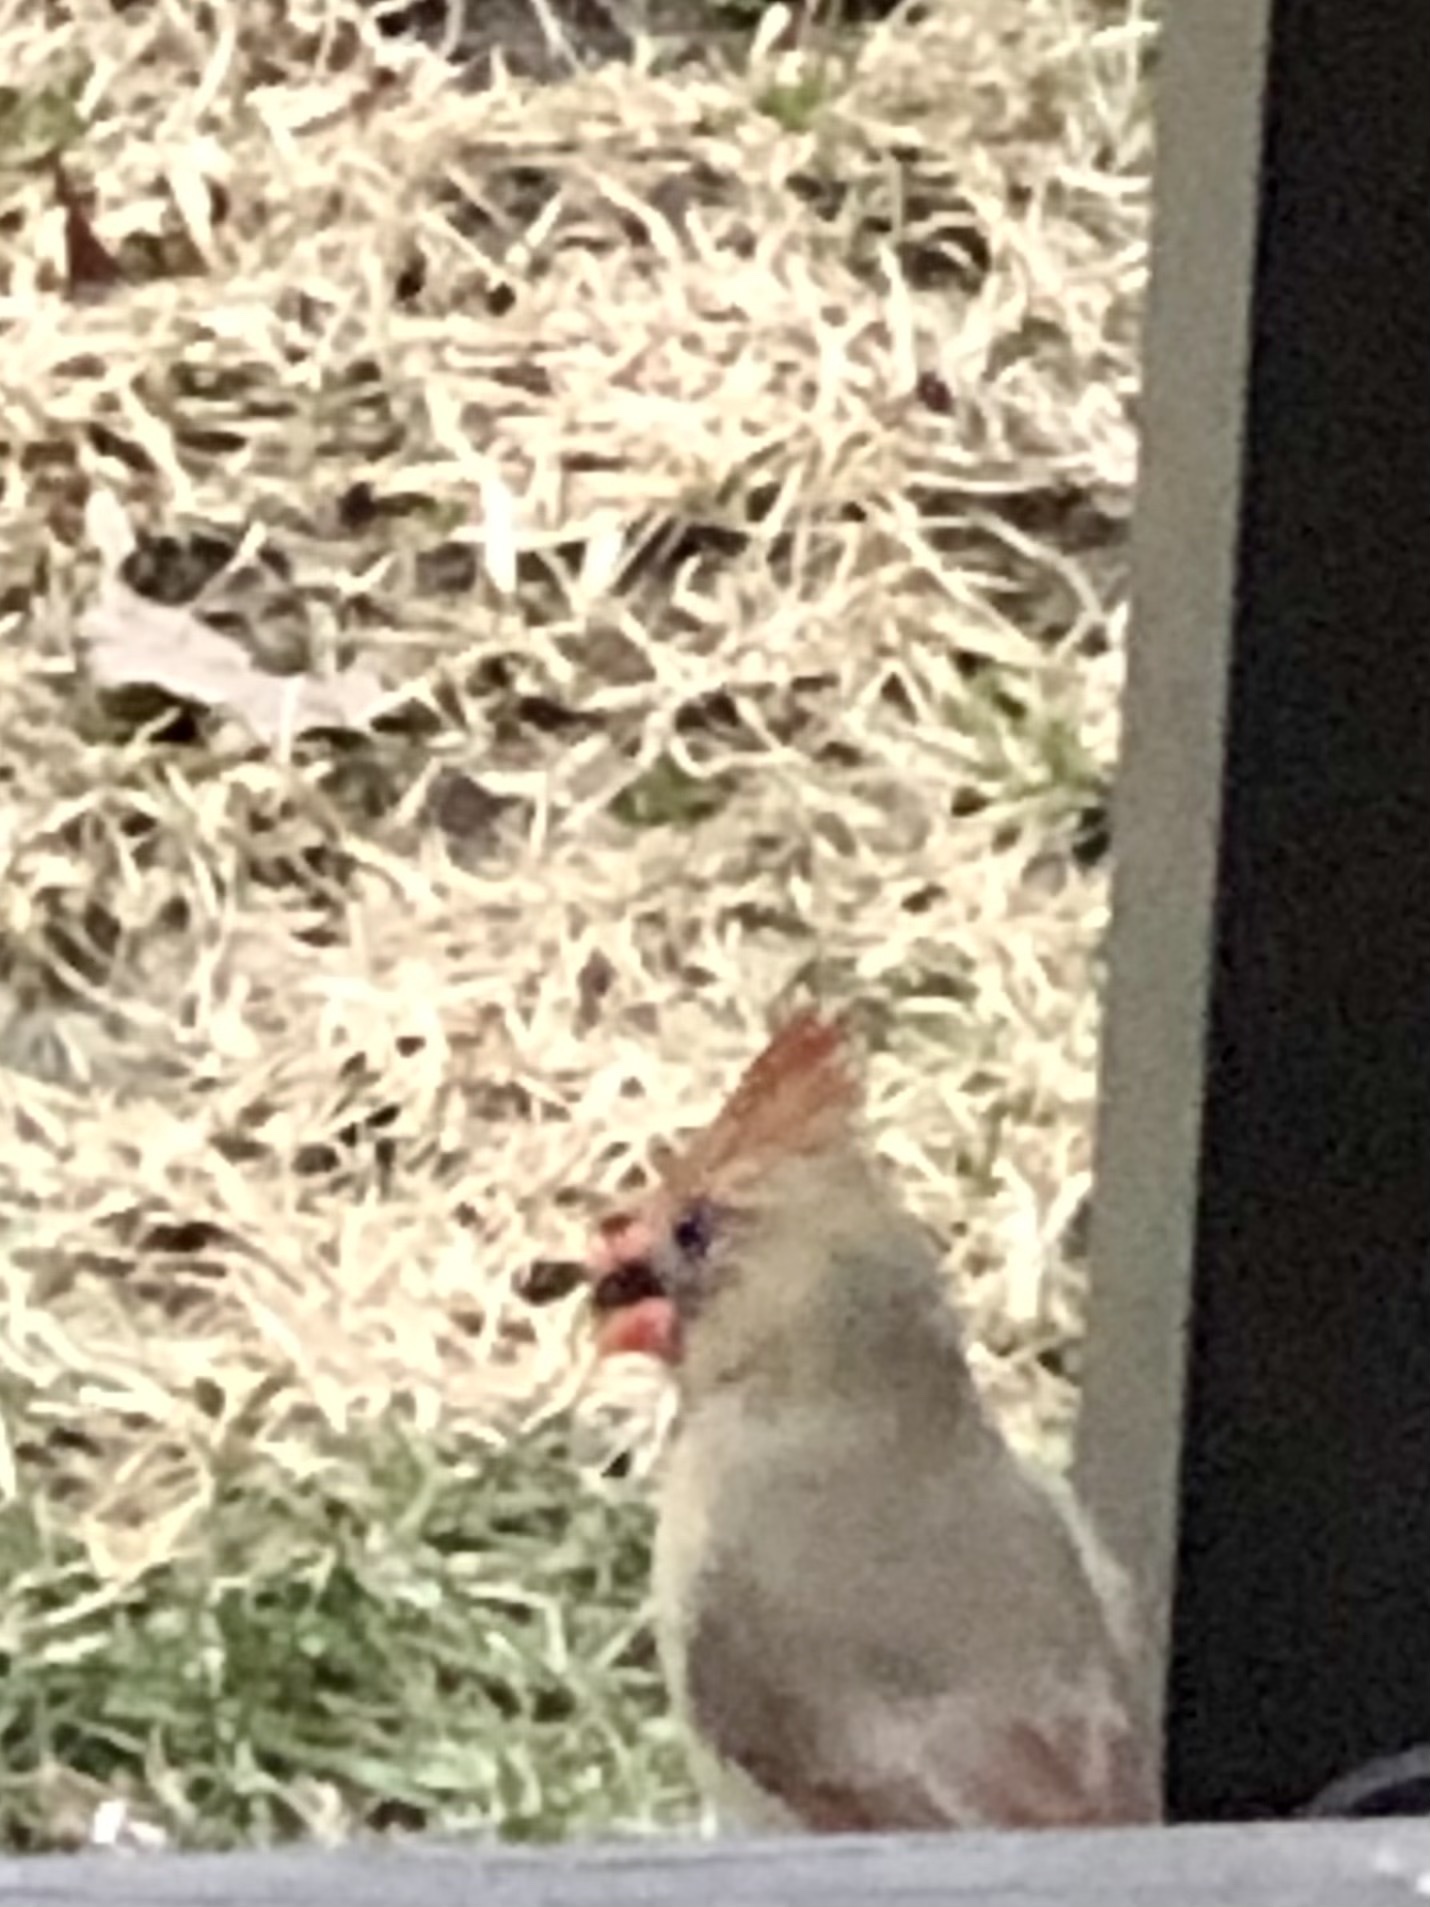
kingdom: Animalia
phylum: Chordata
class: Aves
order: Passeriformes
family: Cardinalidae
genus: Cardinalis
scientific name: Cardinalis cardinalis
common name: Northern cardinal
